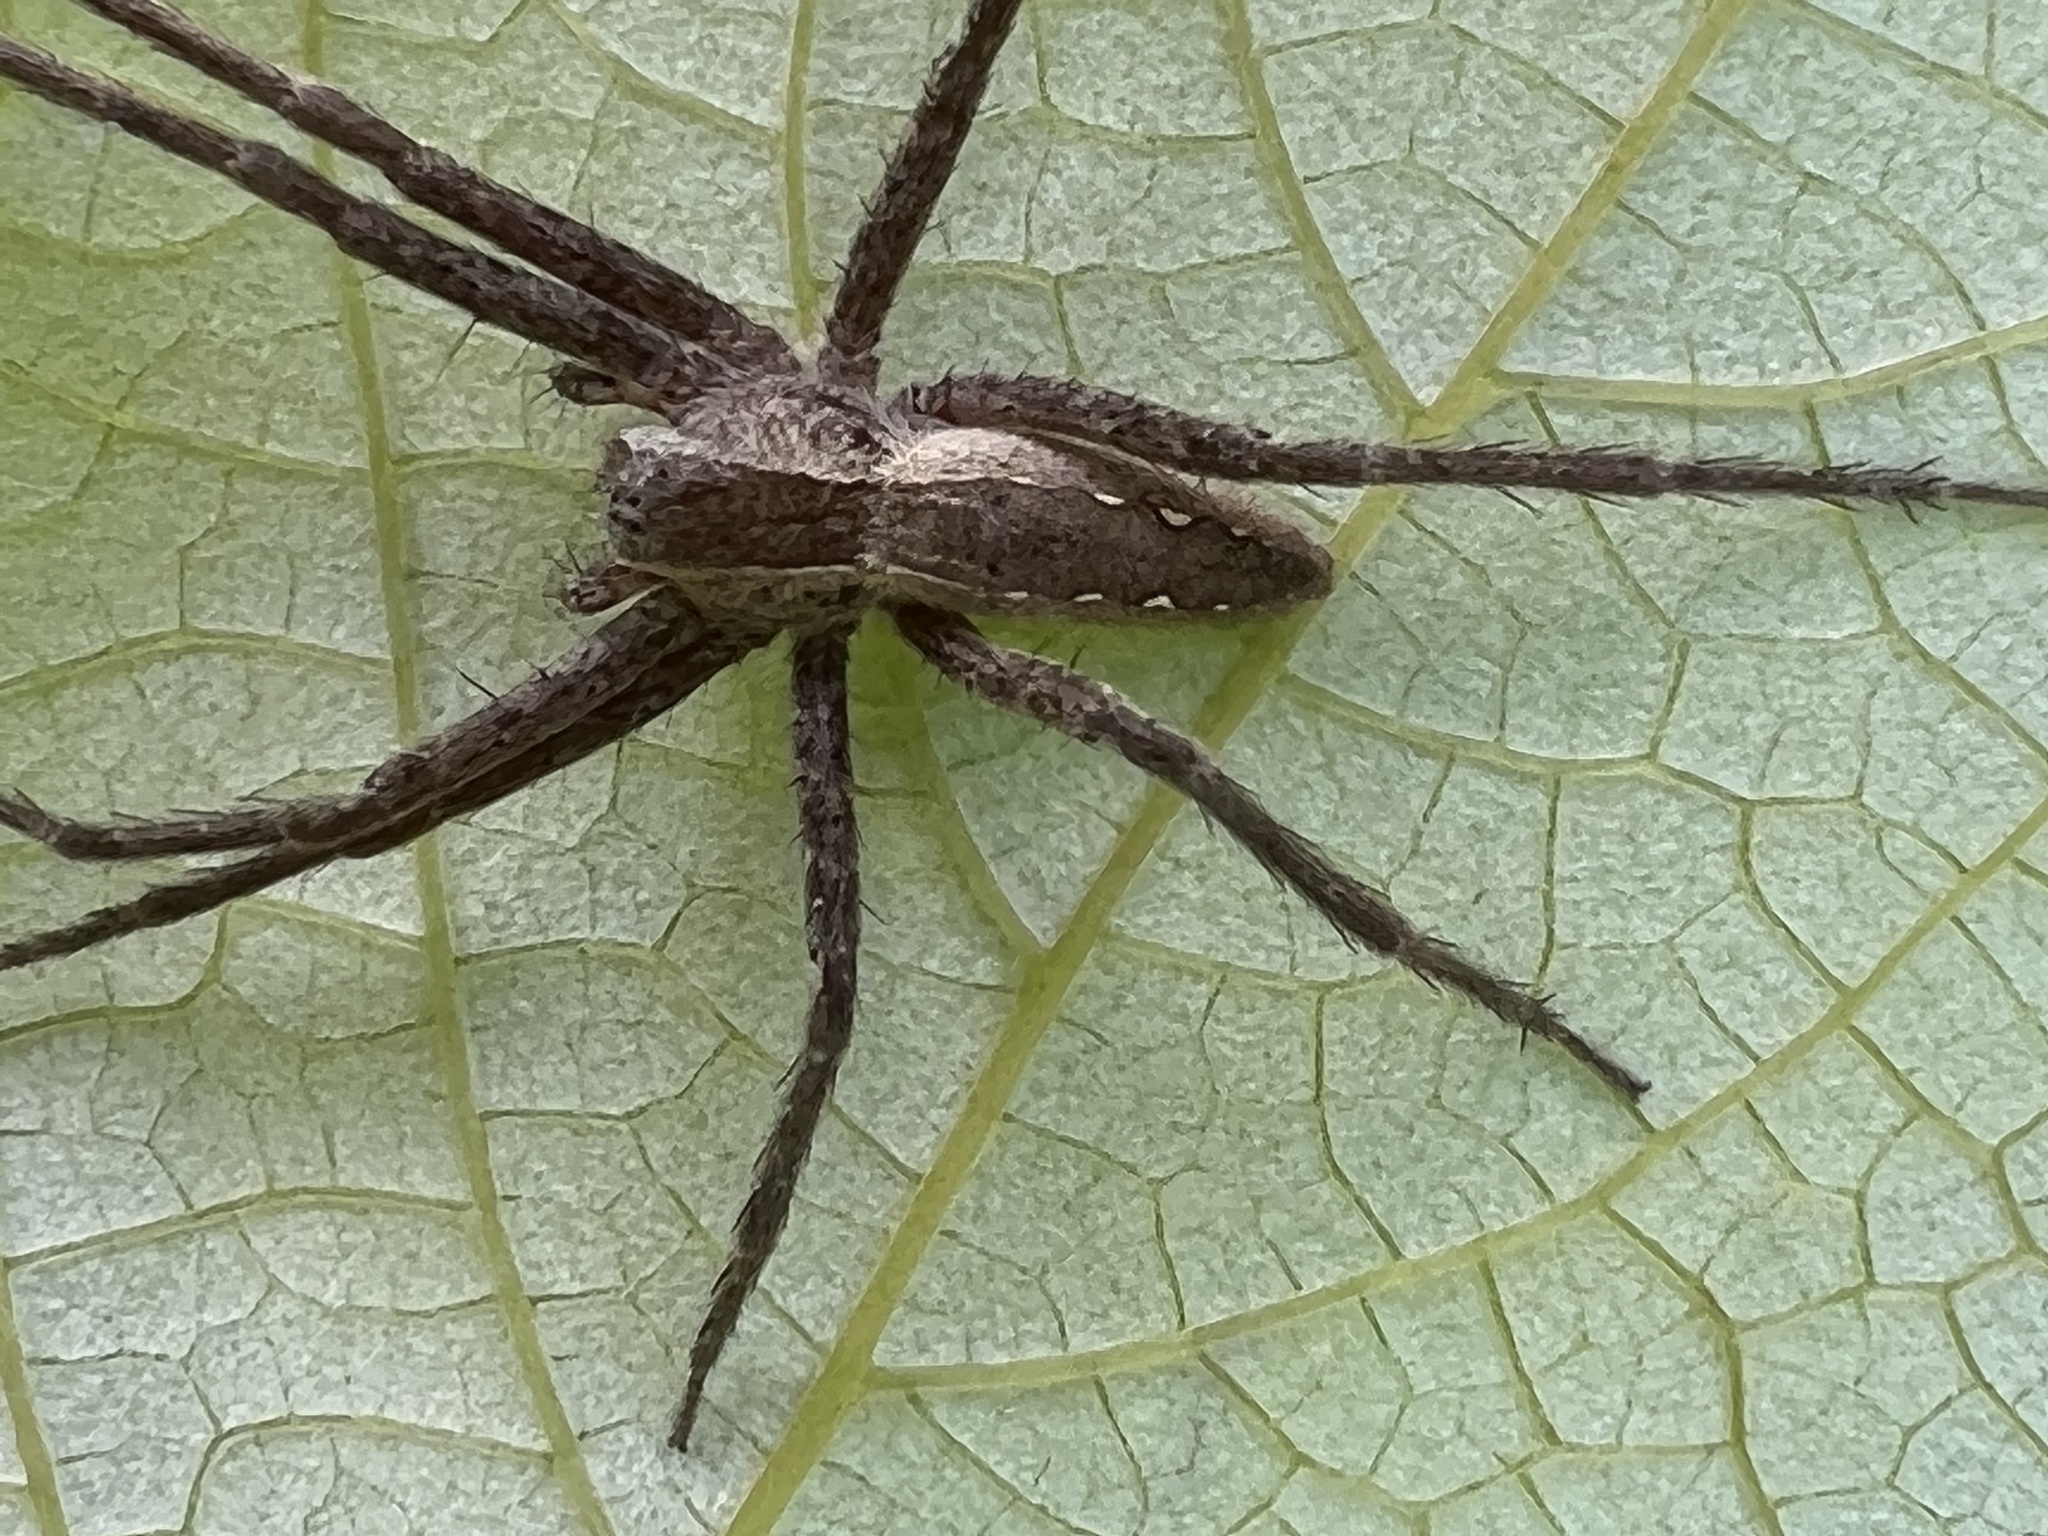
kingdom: Animalia
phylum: Arthropoda
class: Arachnida
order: Araneae
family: Pisauridae
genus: Pisaurina
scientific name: Pisaurina mira
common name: American nursery web spider
